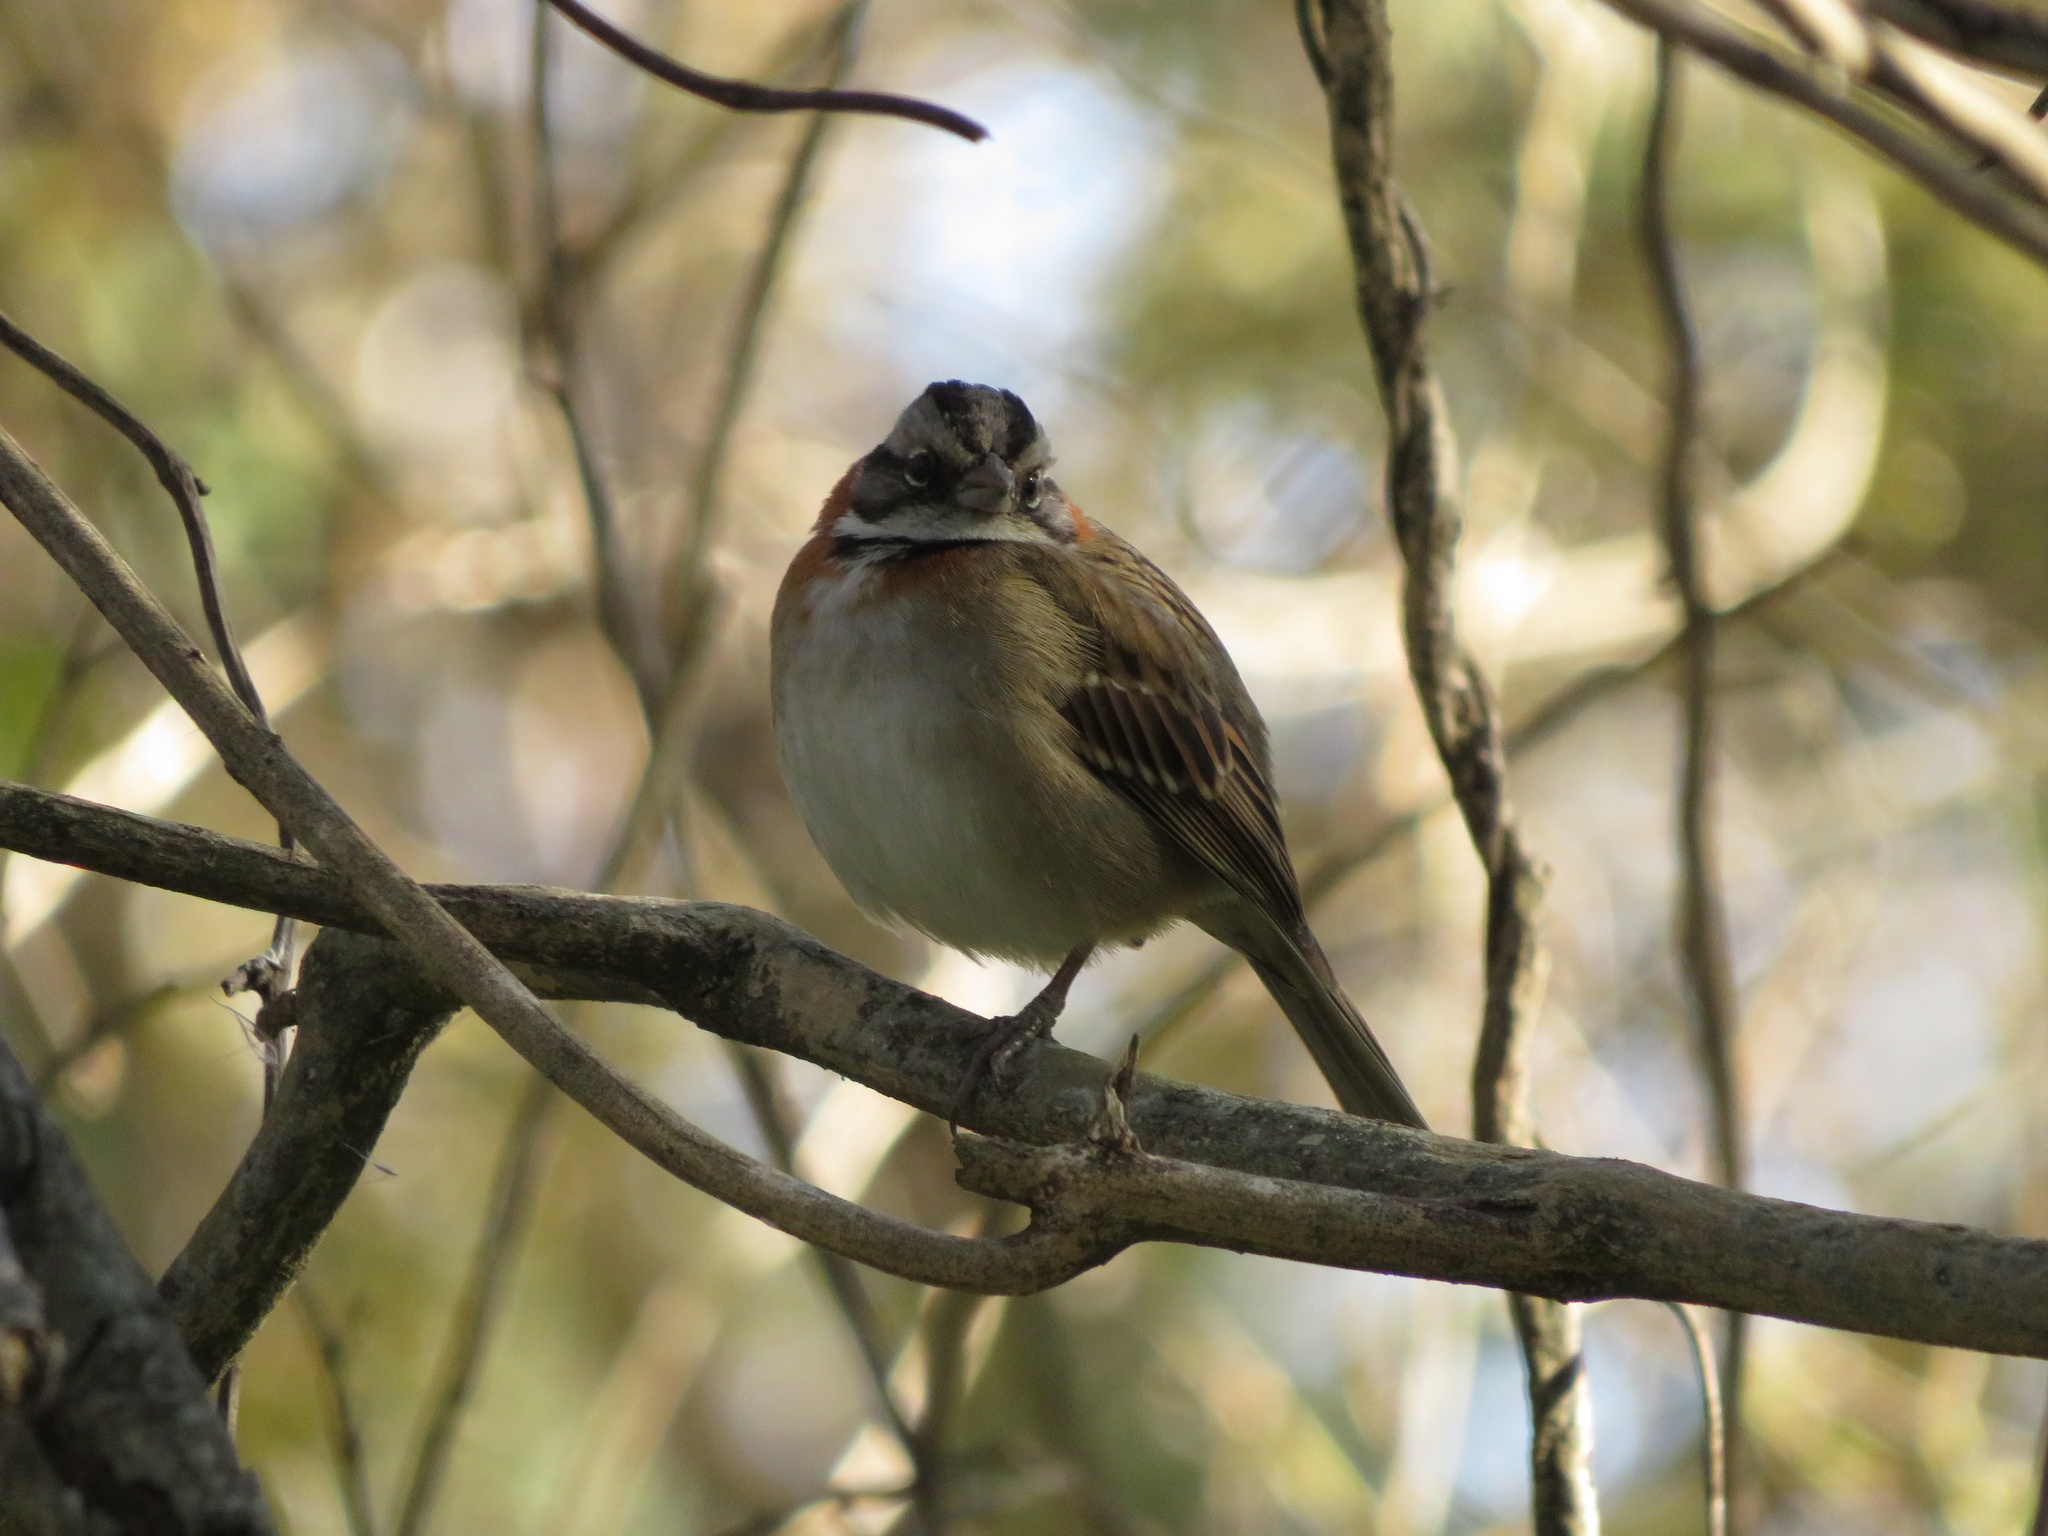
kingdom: Animalia
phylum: Chordata
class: Aves
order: Passeriformes
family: Passerellidae
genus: Zonotrichia
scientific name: Zonotrichia capensis
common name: Rufous-collared sparrow
